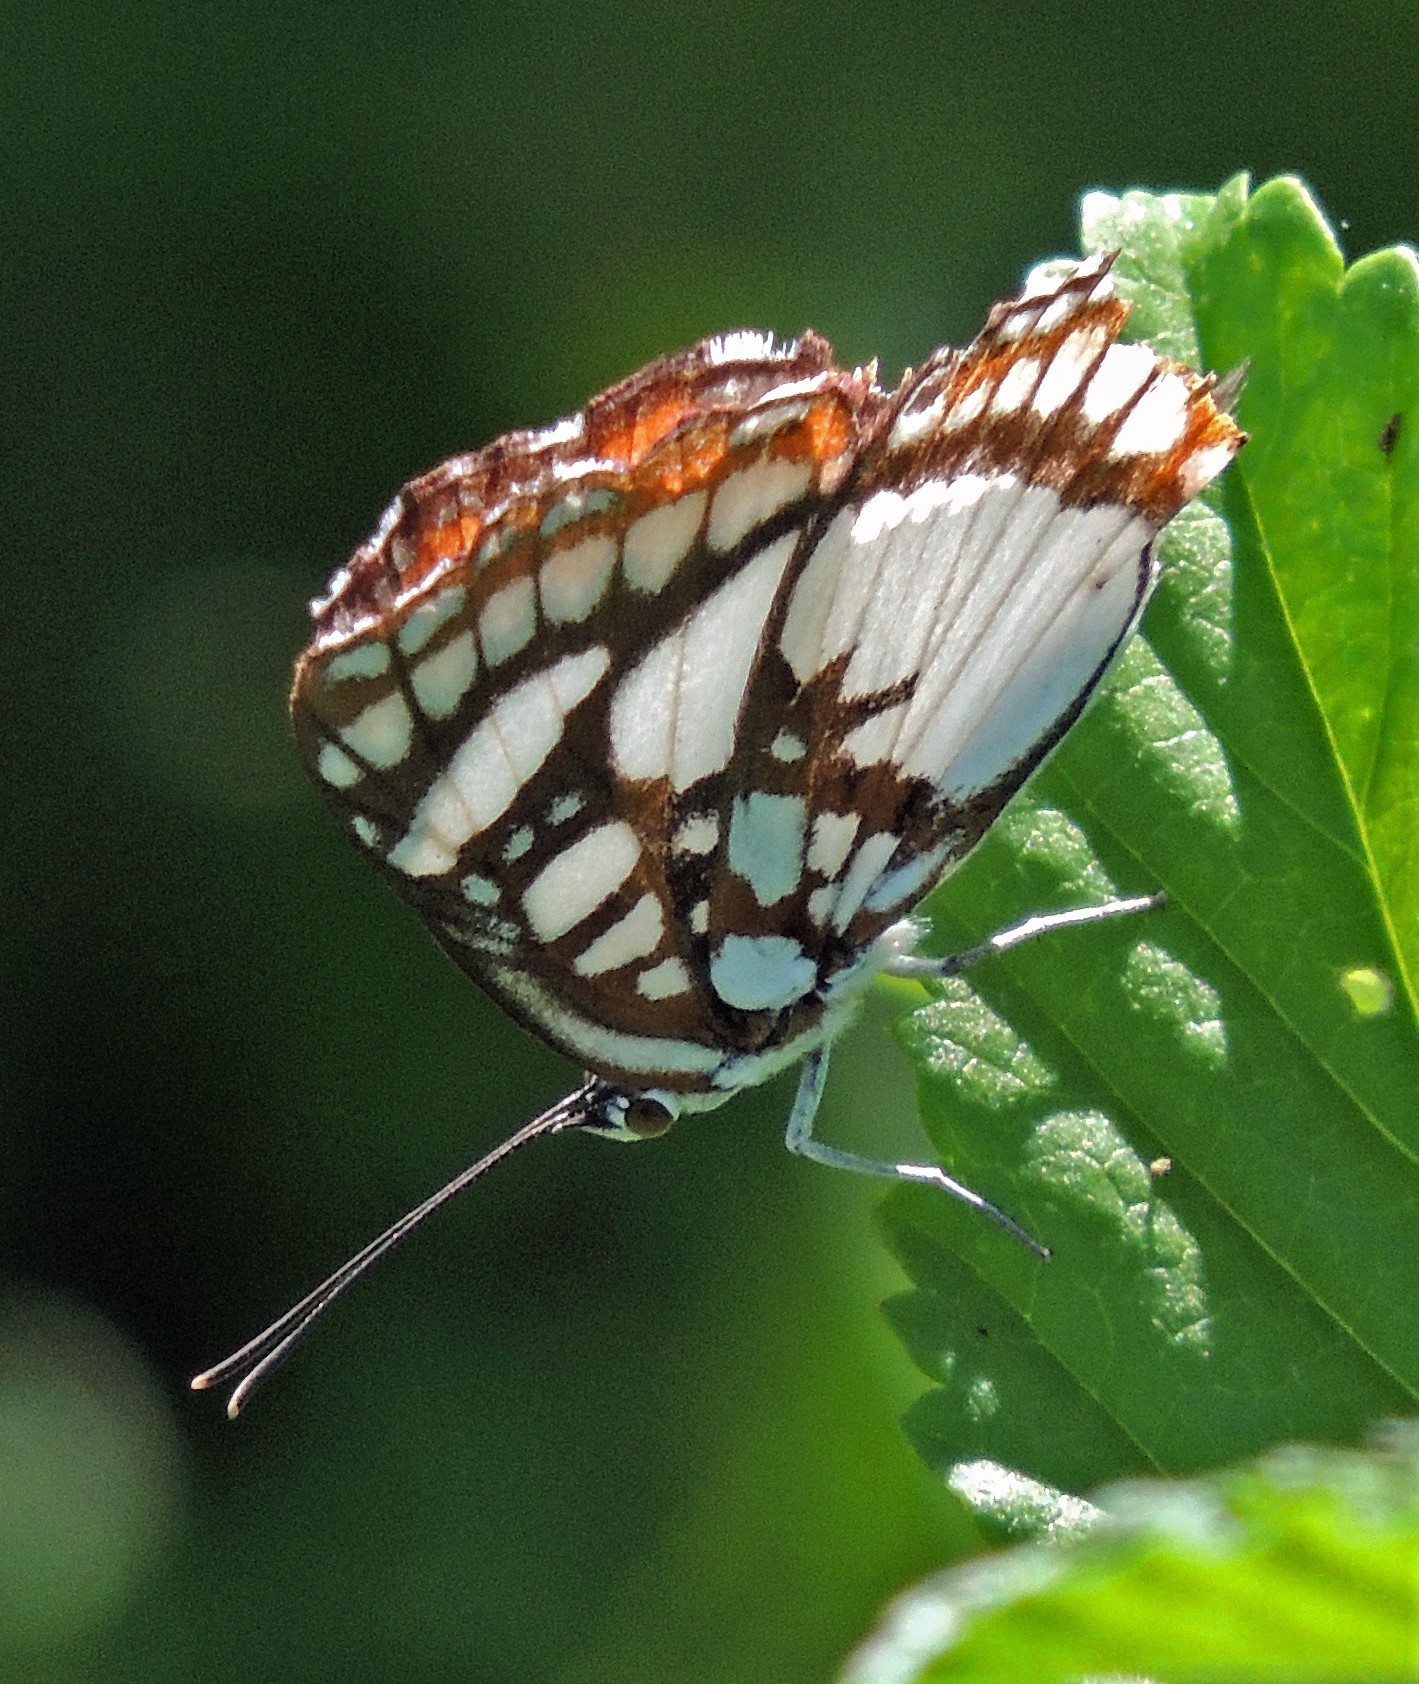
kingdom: Animalia
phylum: Arthropoda
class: Insecta
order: Lepidoptera
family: Riodinidae
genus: Ariconias
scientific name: Ariconias glaphyra
